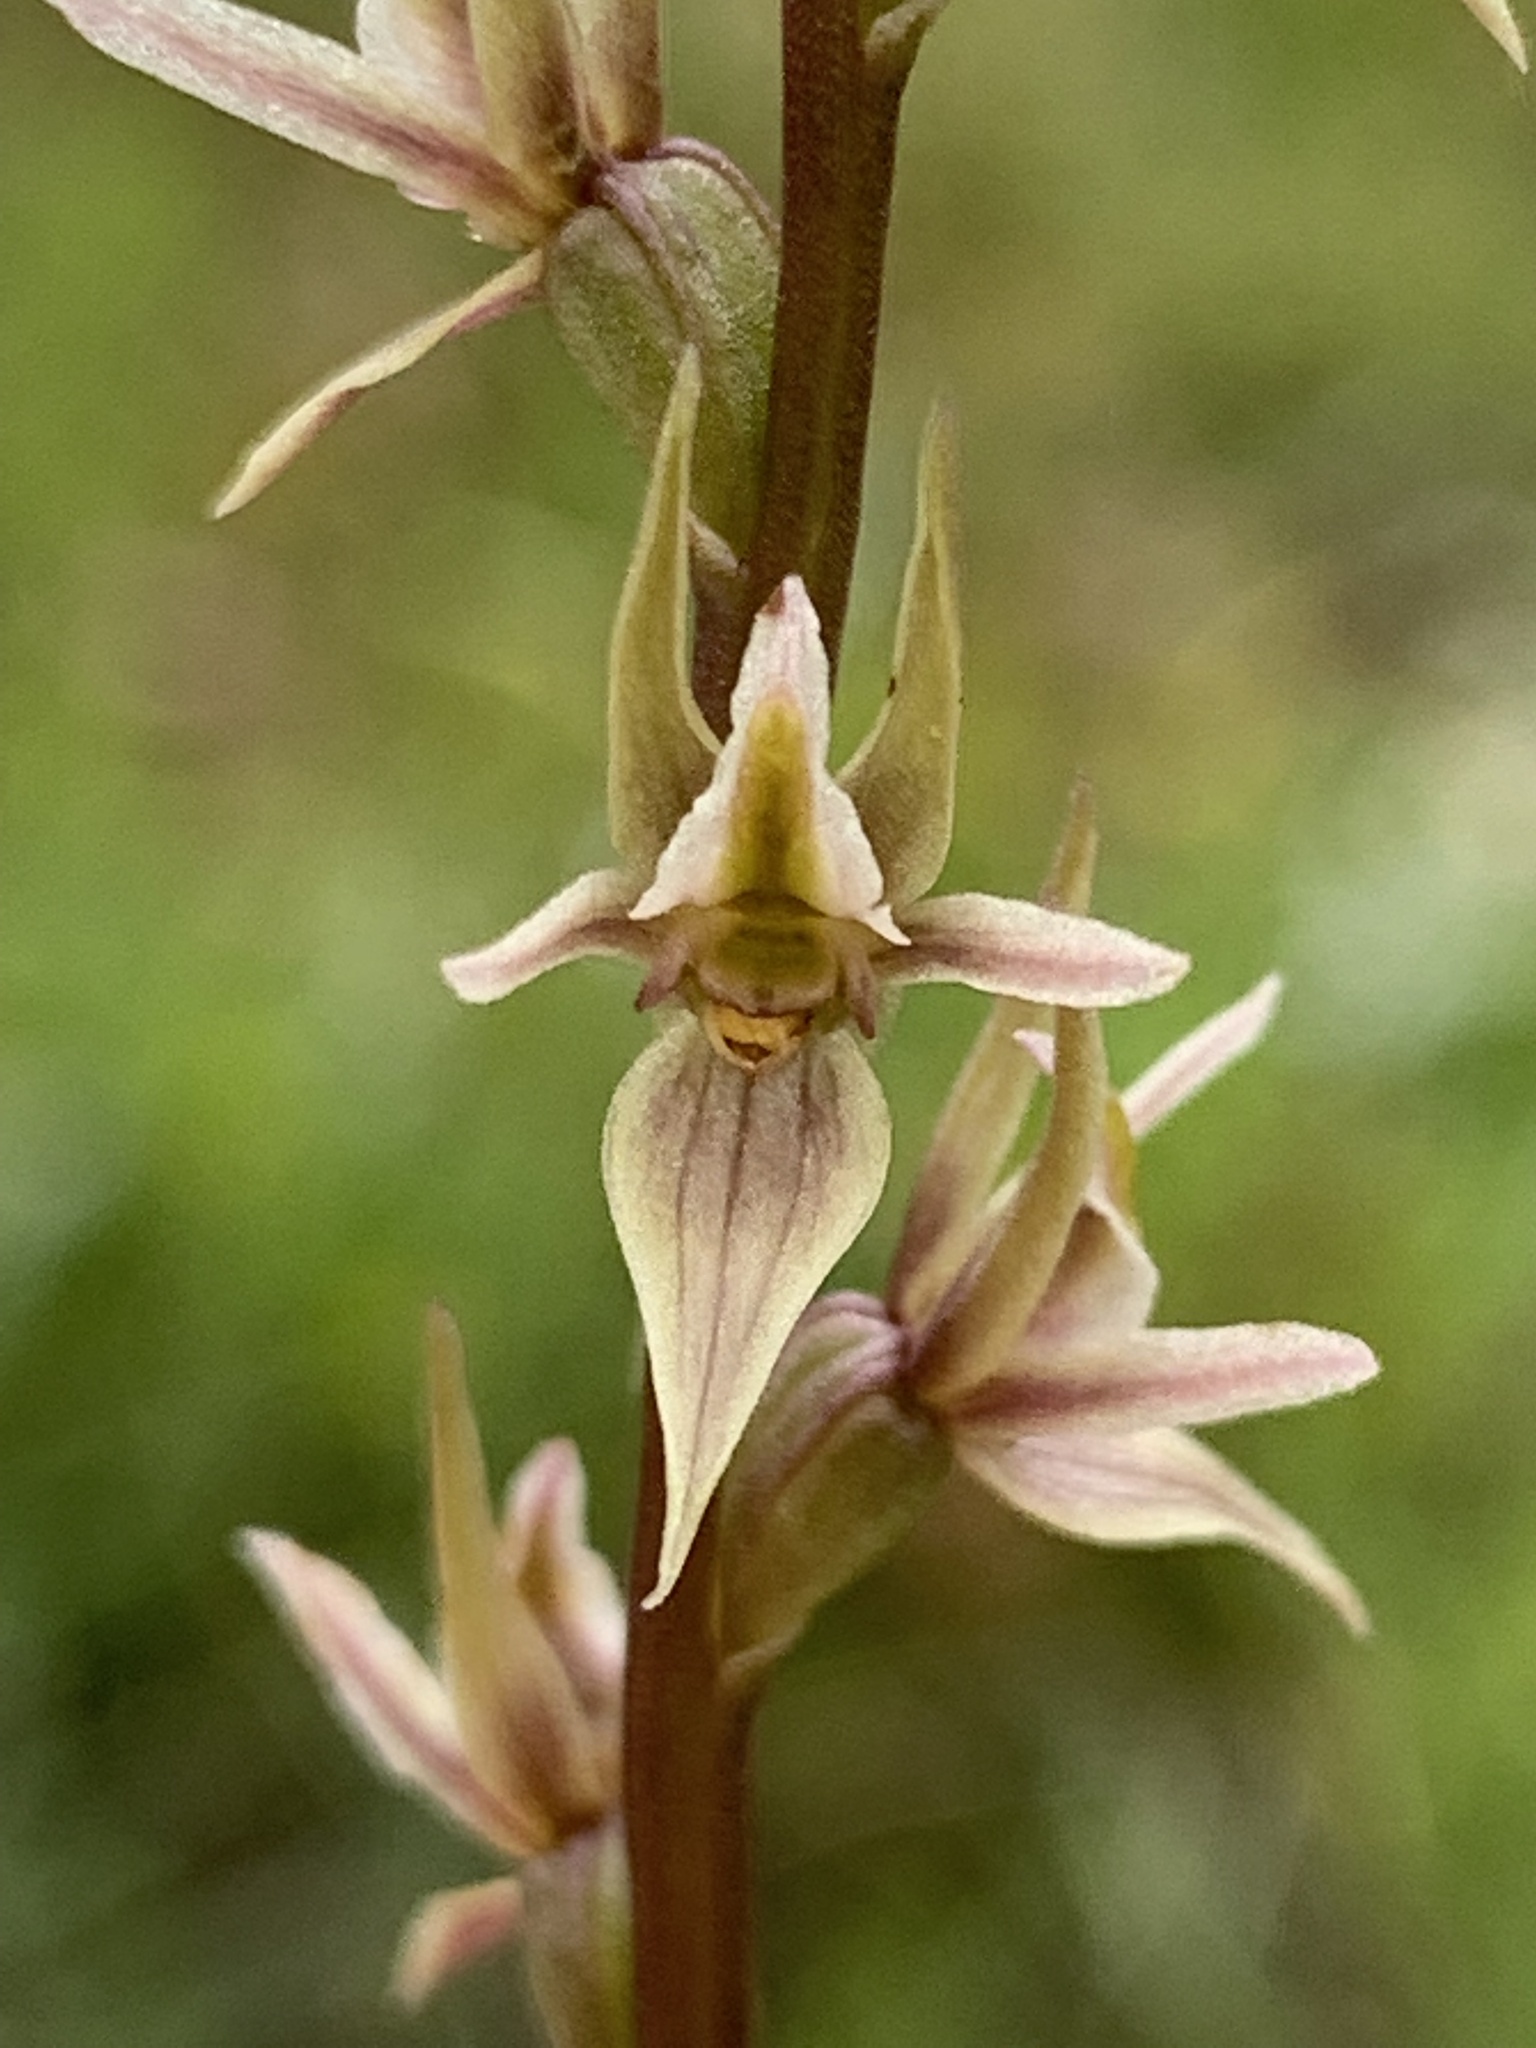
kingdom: Plantae
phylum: Tracheophyta
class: Liliopsida
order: Asparagales
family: Orchidaceae
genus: Prasophyllum
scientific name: Prasophyllum petilum
